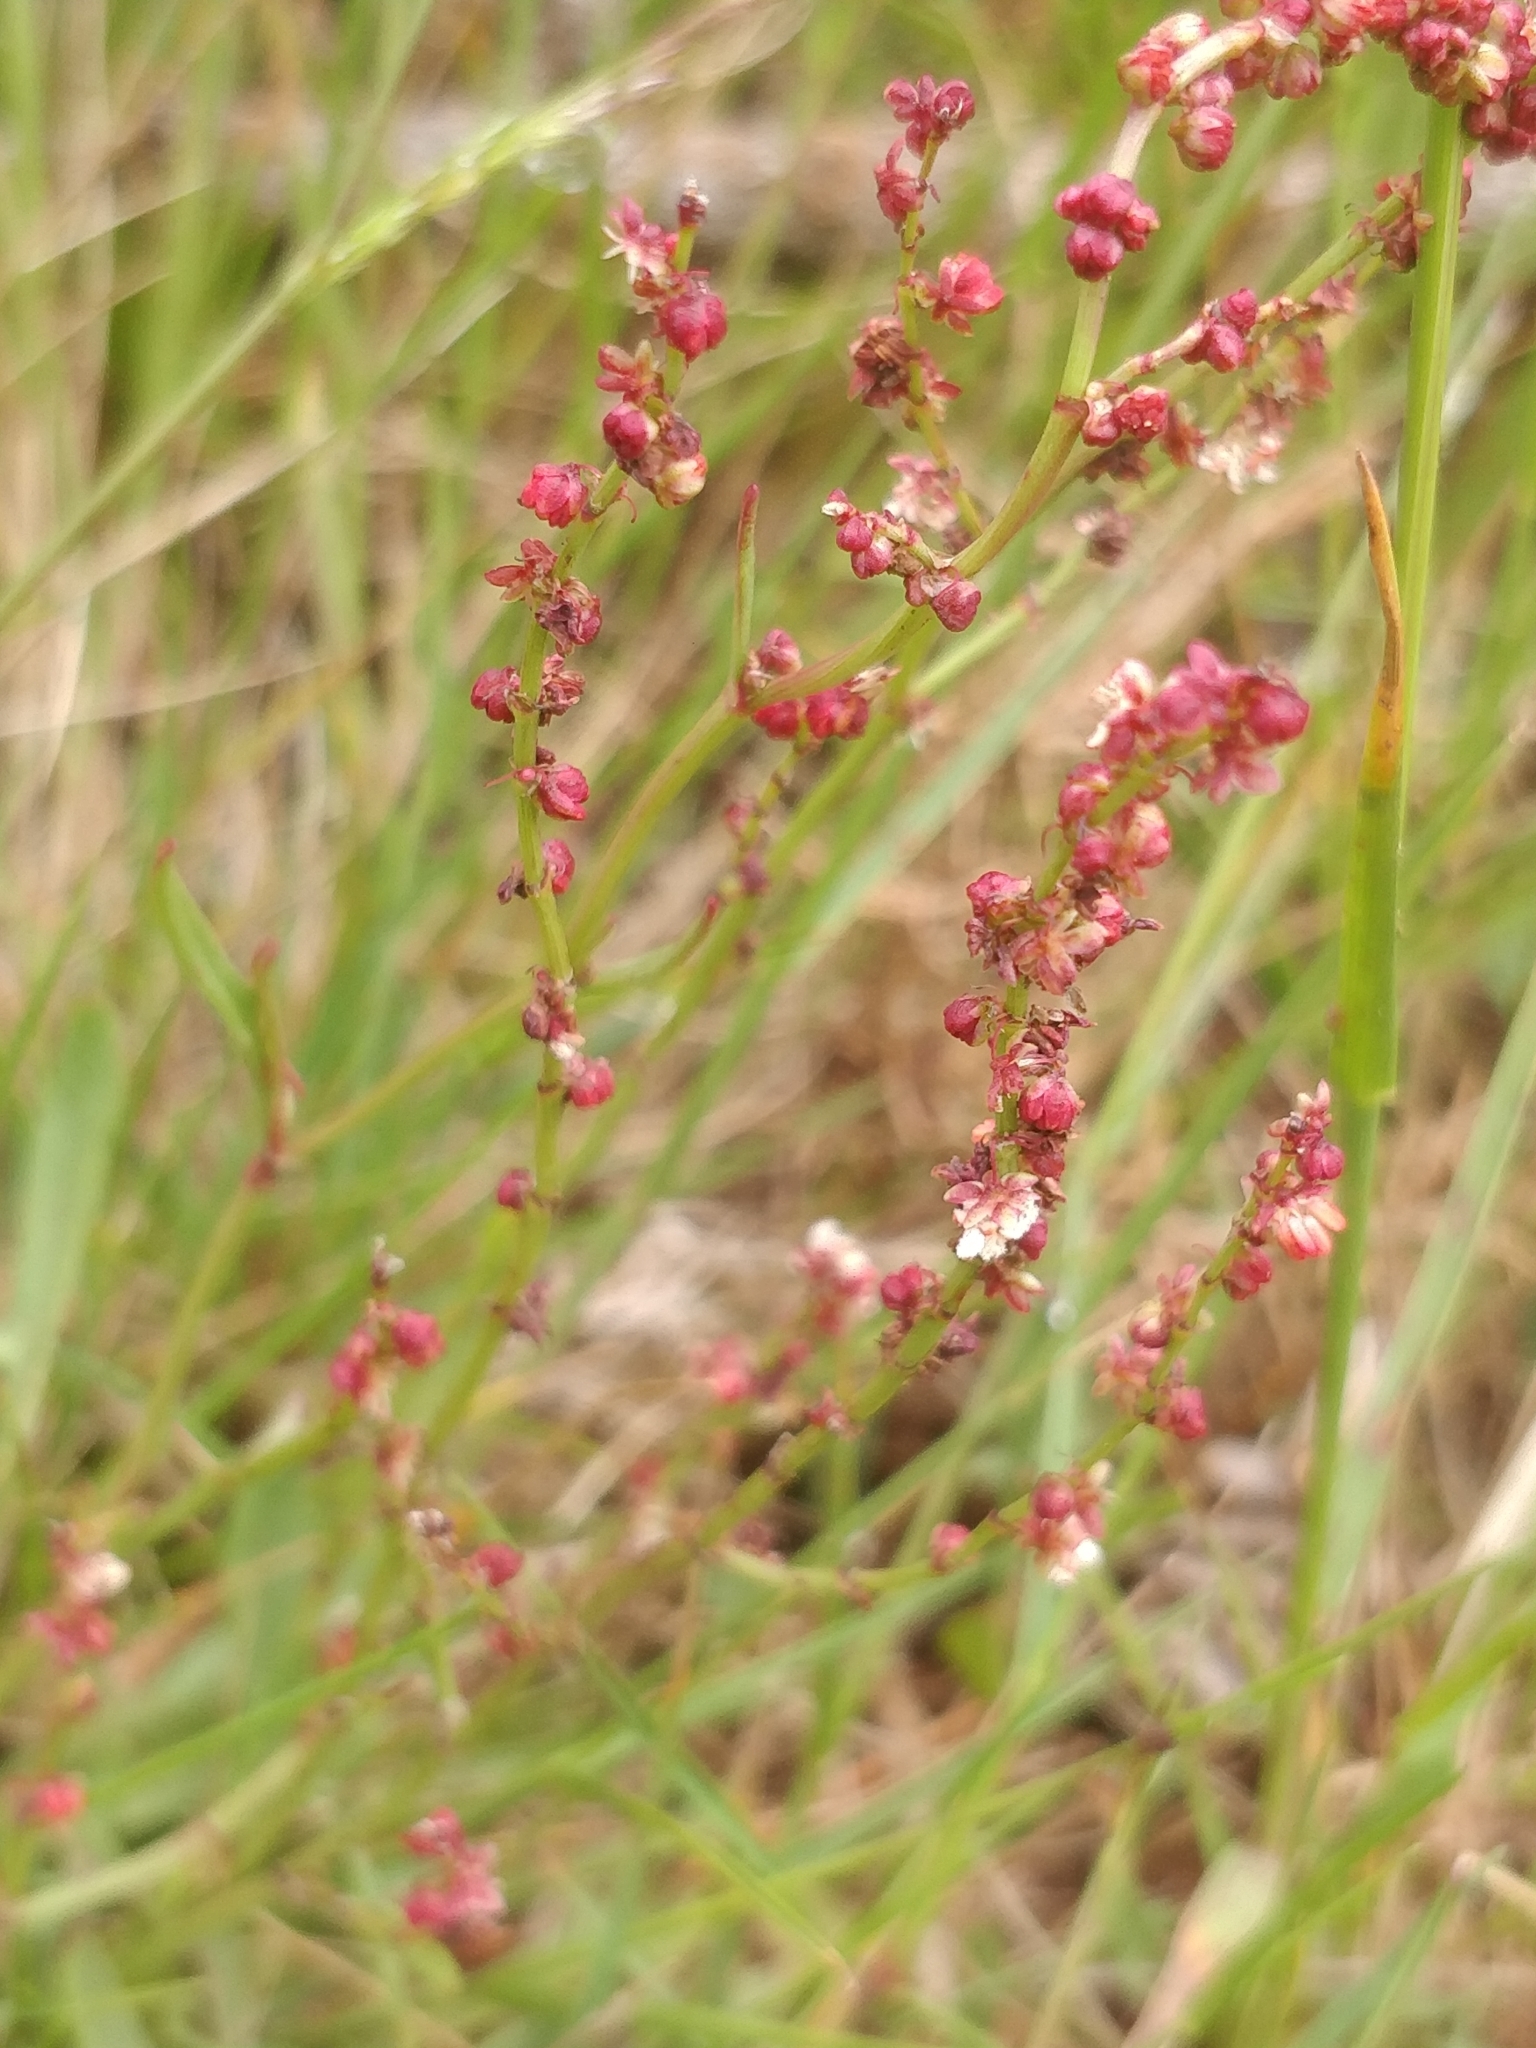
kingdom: Plantae
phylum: Tracheophyta
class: Magnoliopsida
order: Caryophyllales
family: Polygonaceae
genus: Rumex
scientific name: Rumex acetosella
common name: Common sheep sorrel
